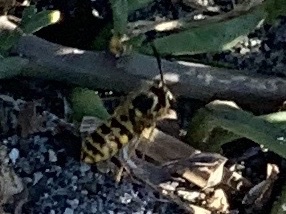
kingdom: Animalia
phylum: Arthropoda
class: Insecta
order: Hymenoptera
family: Vespidae
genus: Vespula
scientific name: Vespula pensylvanica
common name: Western yellowjacket
